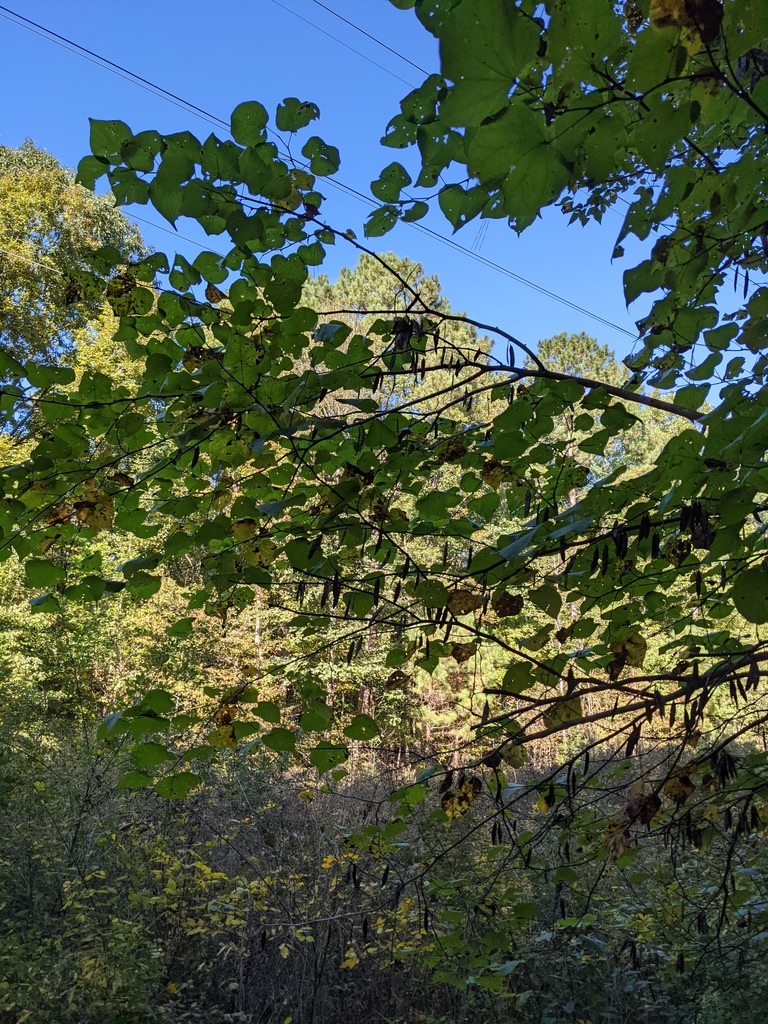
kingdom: Plantae
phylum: Tracheophyta
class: Magnoliopsida
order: Fabales
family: Fabaceae
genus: Cercis
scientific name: Cercis canadensis
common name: Eastern redbud
